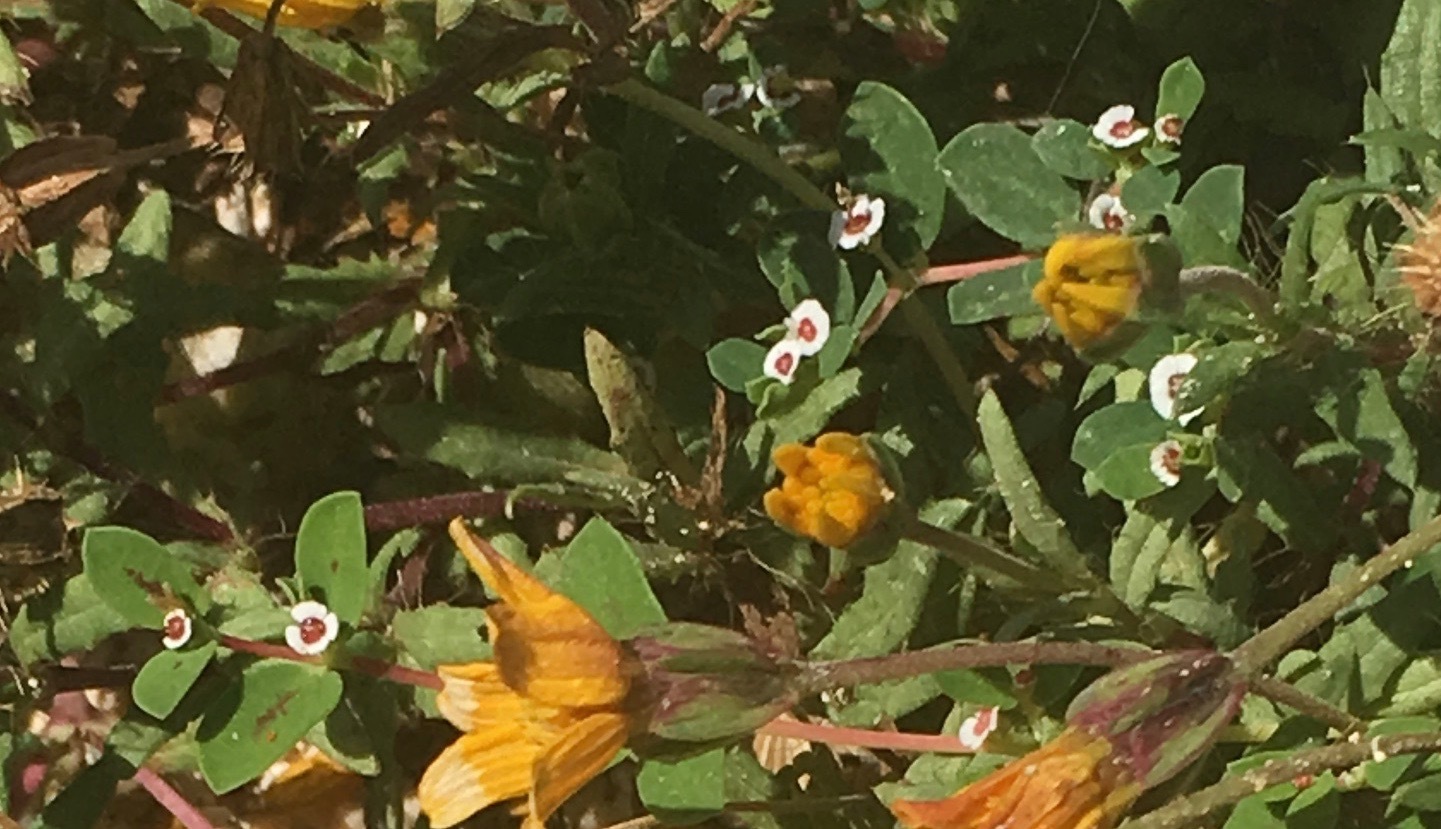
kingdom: Plantae
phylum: Tracheophyta
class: Magnoliopsida
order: Malpighiales
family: Euphorbiaceae
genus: Euphorbia
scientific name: Euphorbia polycarpa
